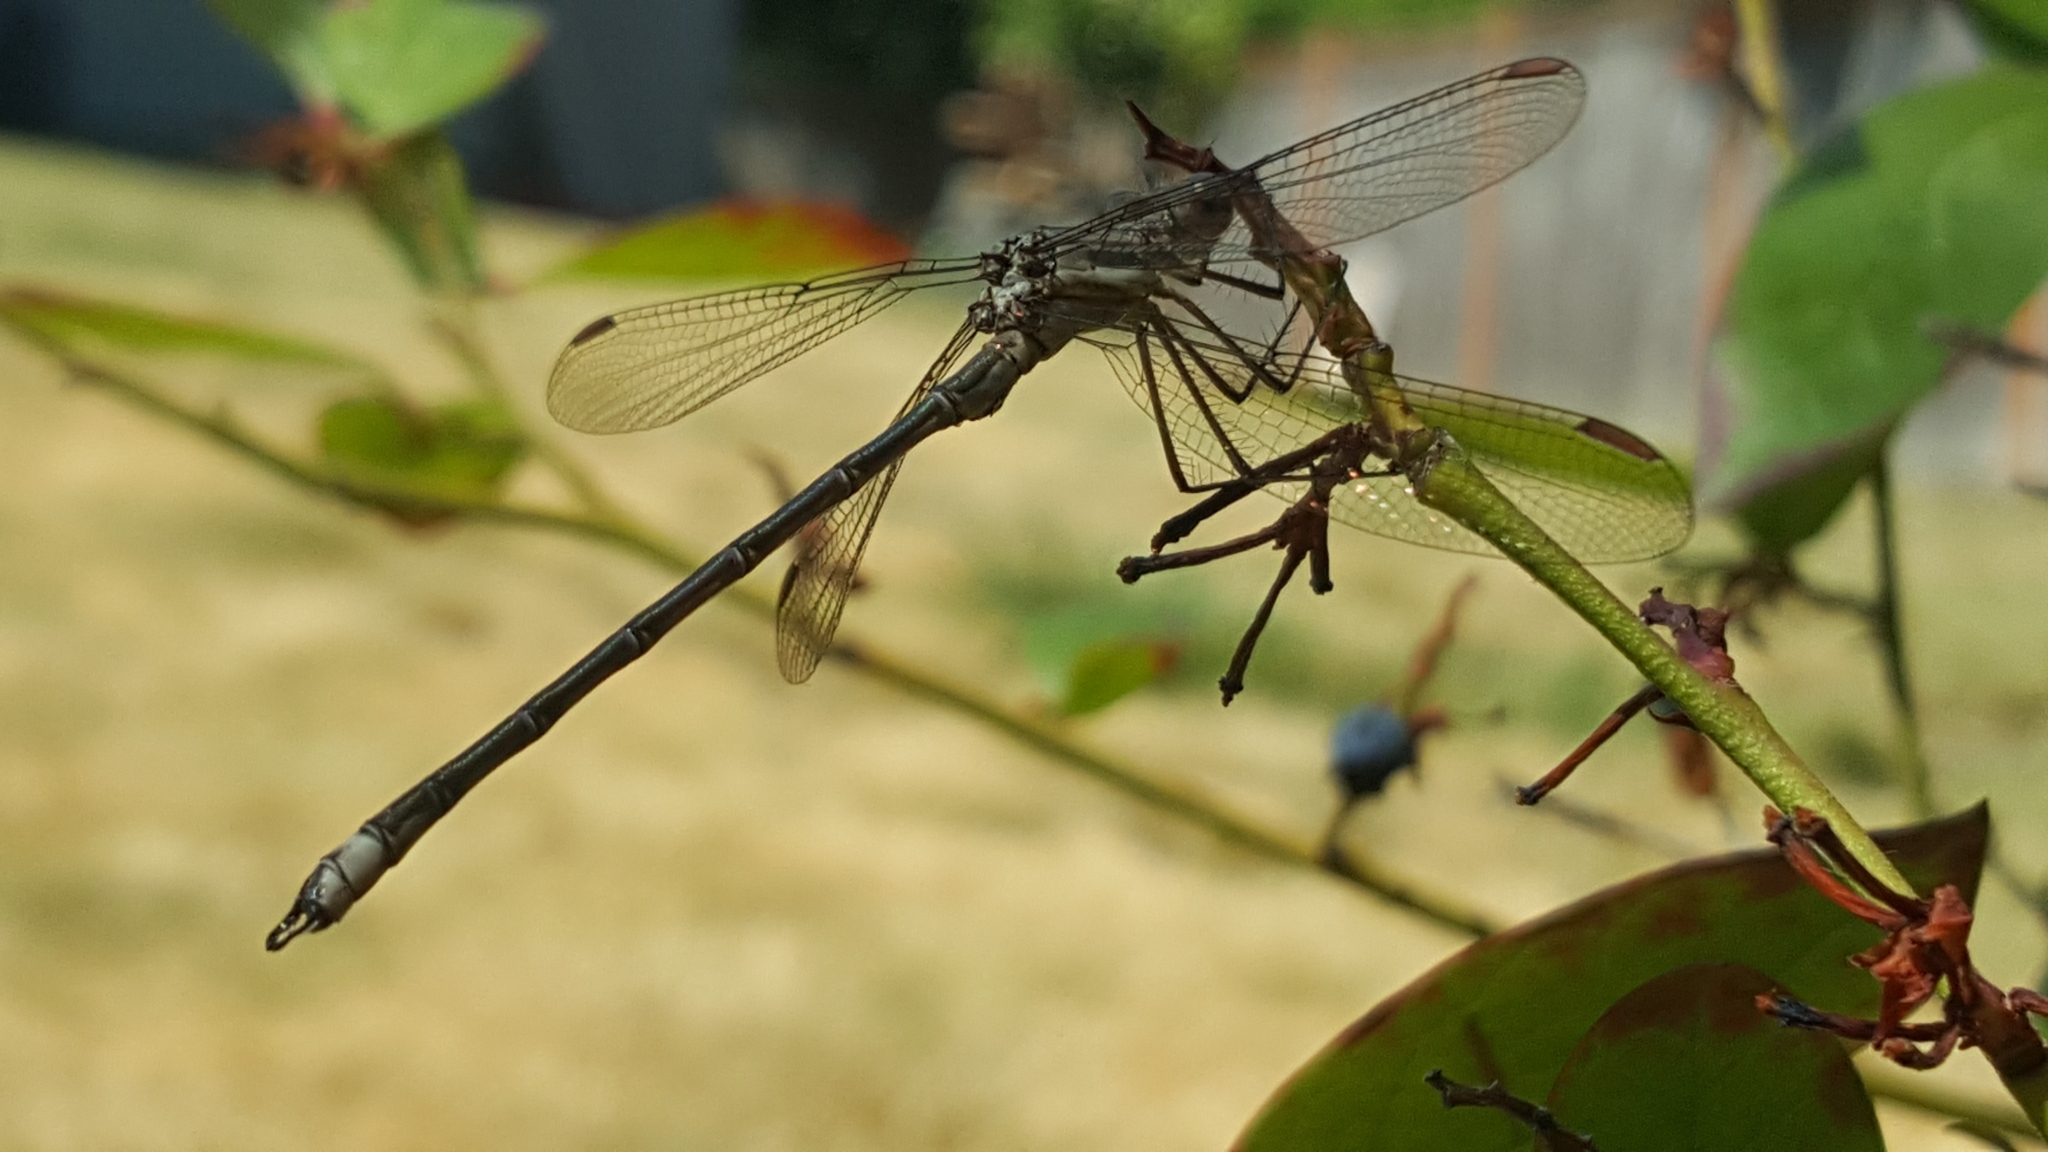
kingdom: Animalia
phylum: Arthropoda
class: Insecta
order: Odonata
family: Lestidae
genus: Archilestes
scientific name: Archilestes californicus
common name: California spreadwing
